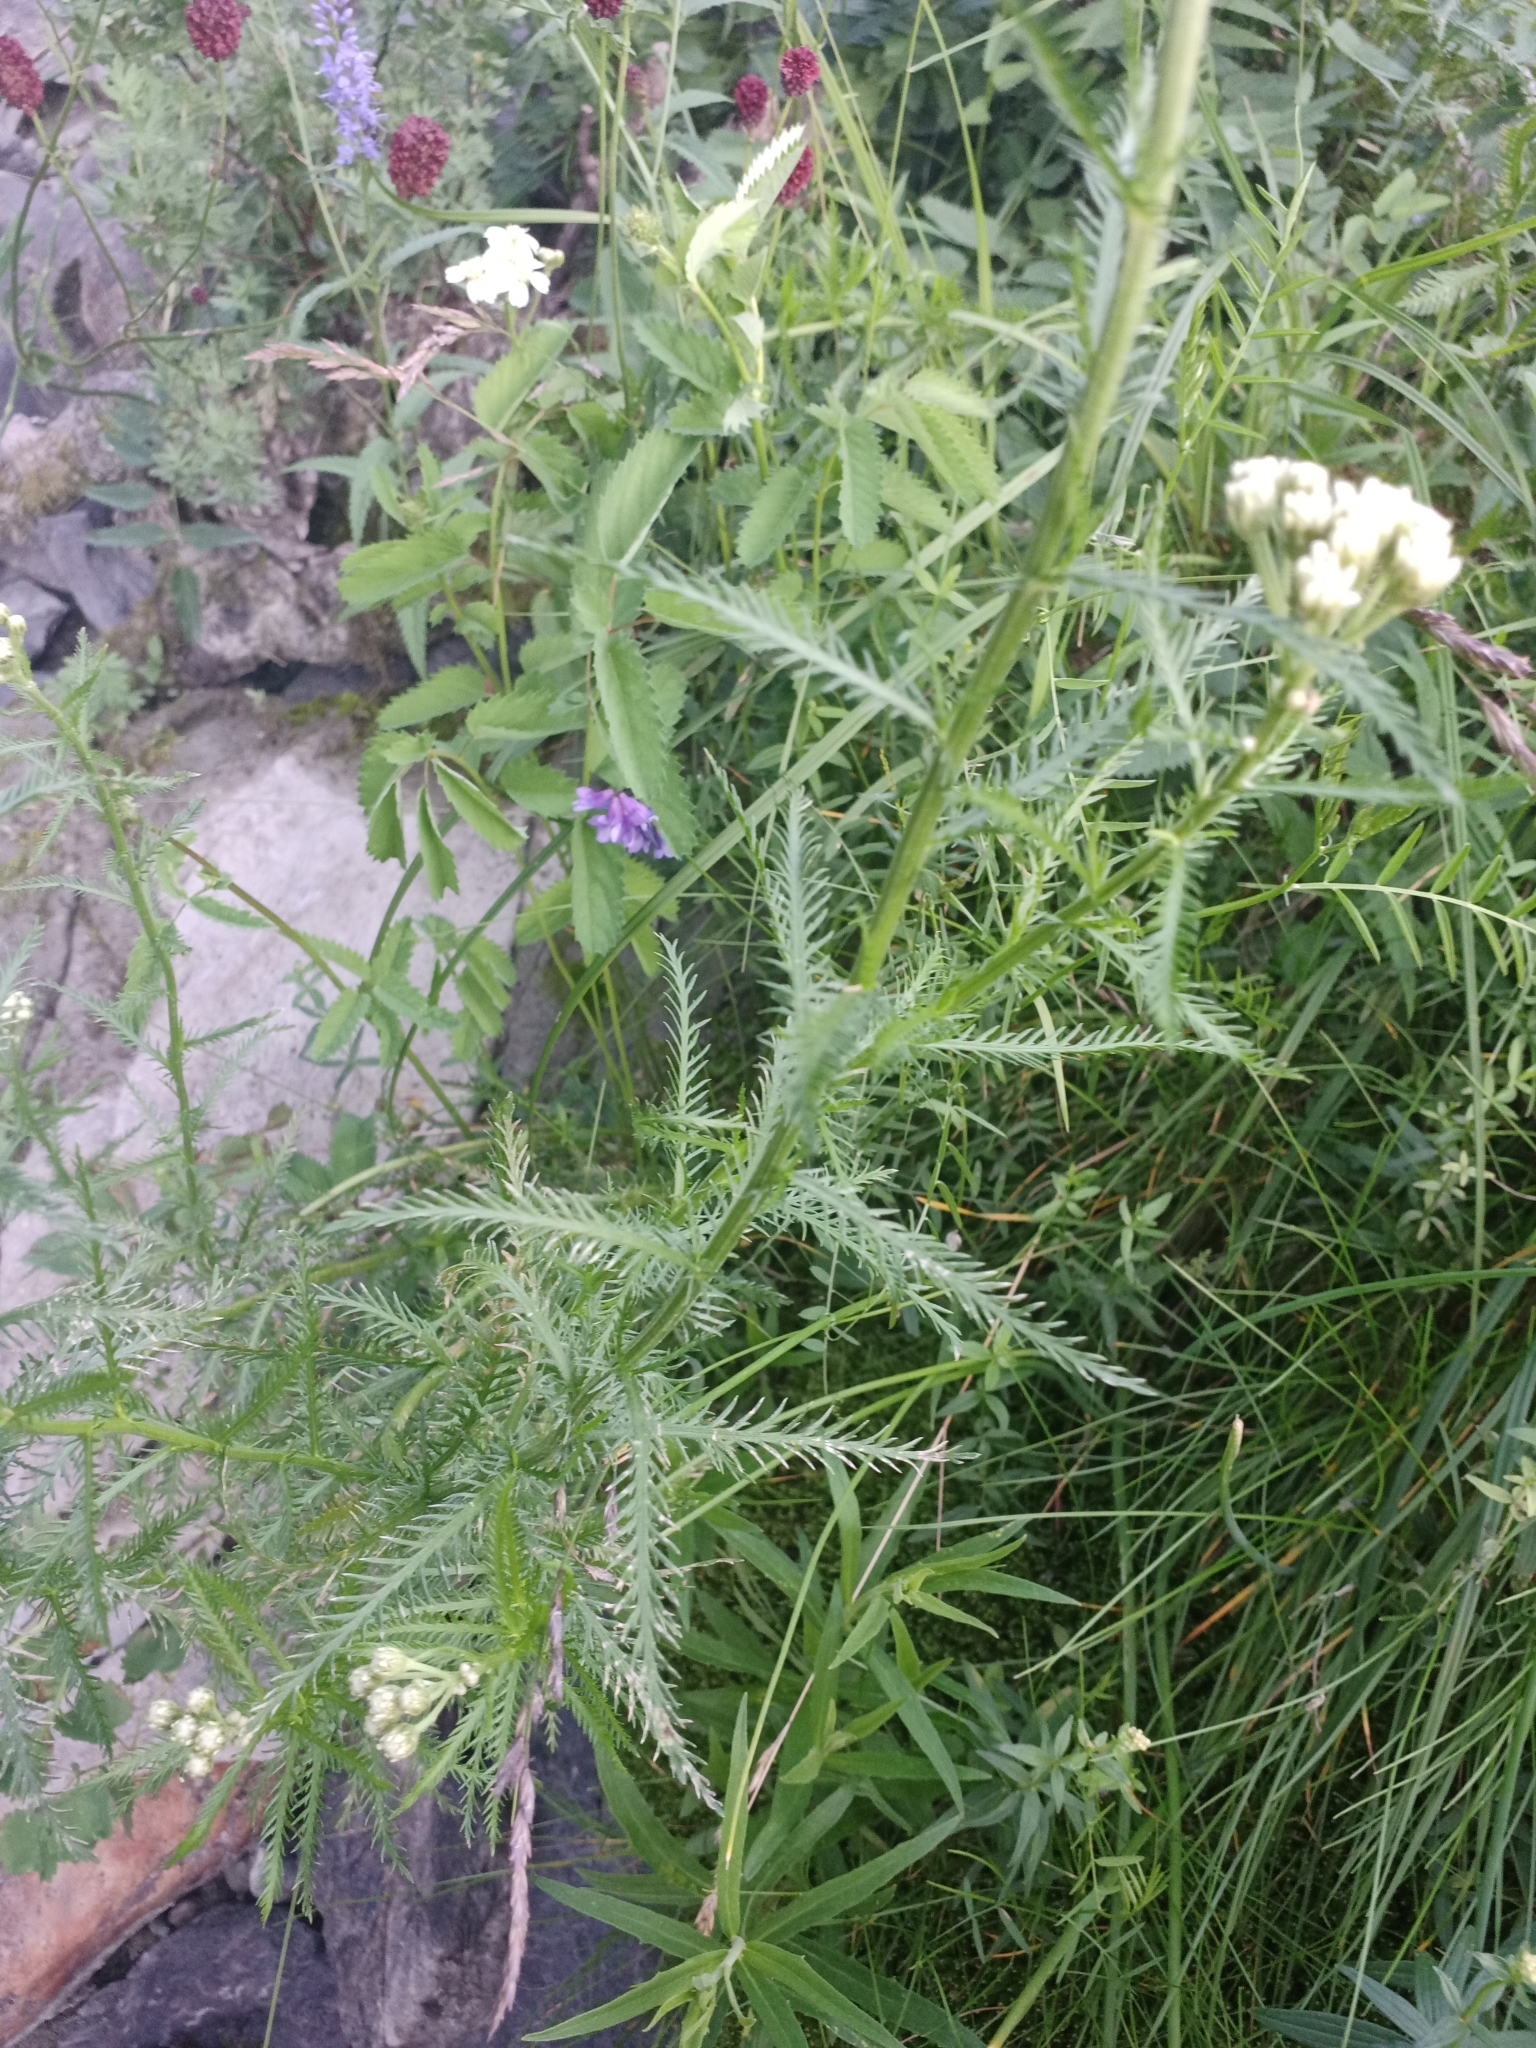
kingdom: Plantae
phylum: Tracheophyta
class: Magnoliopsida
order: Asterales
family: Asteraceae
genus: Achillea
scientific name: Achillea impatiens
